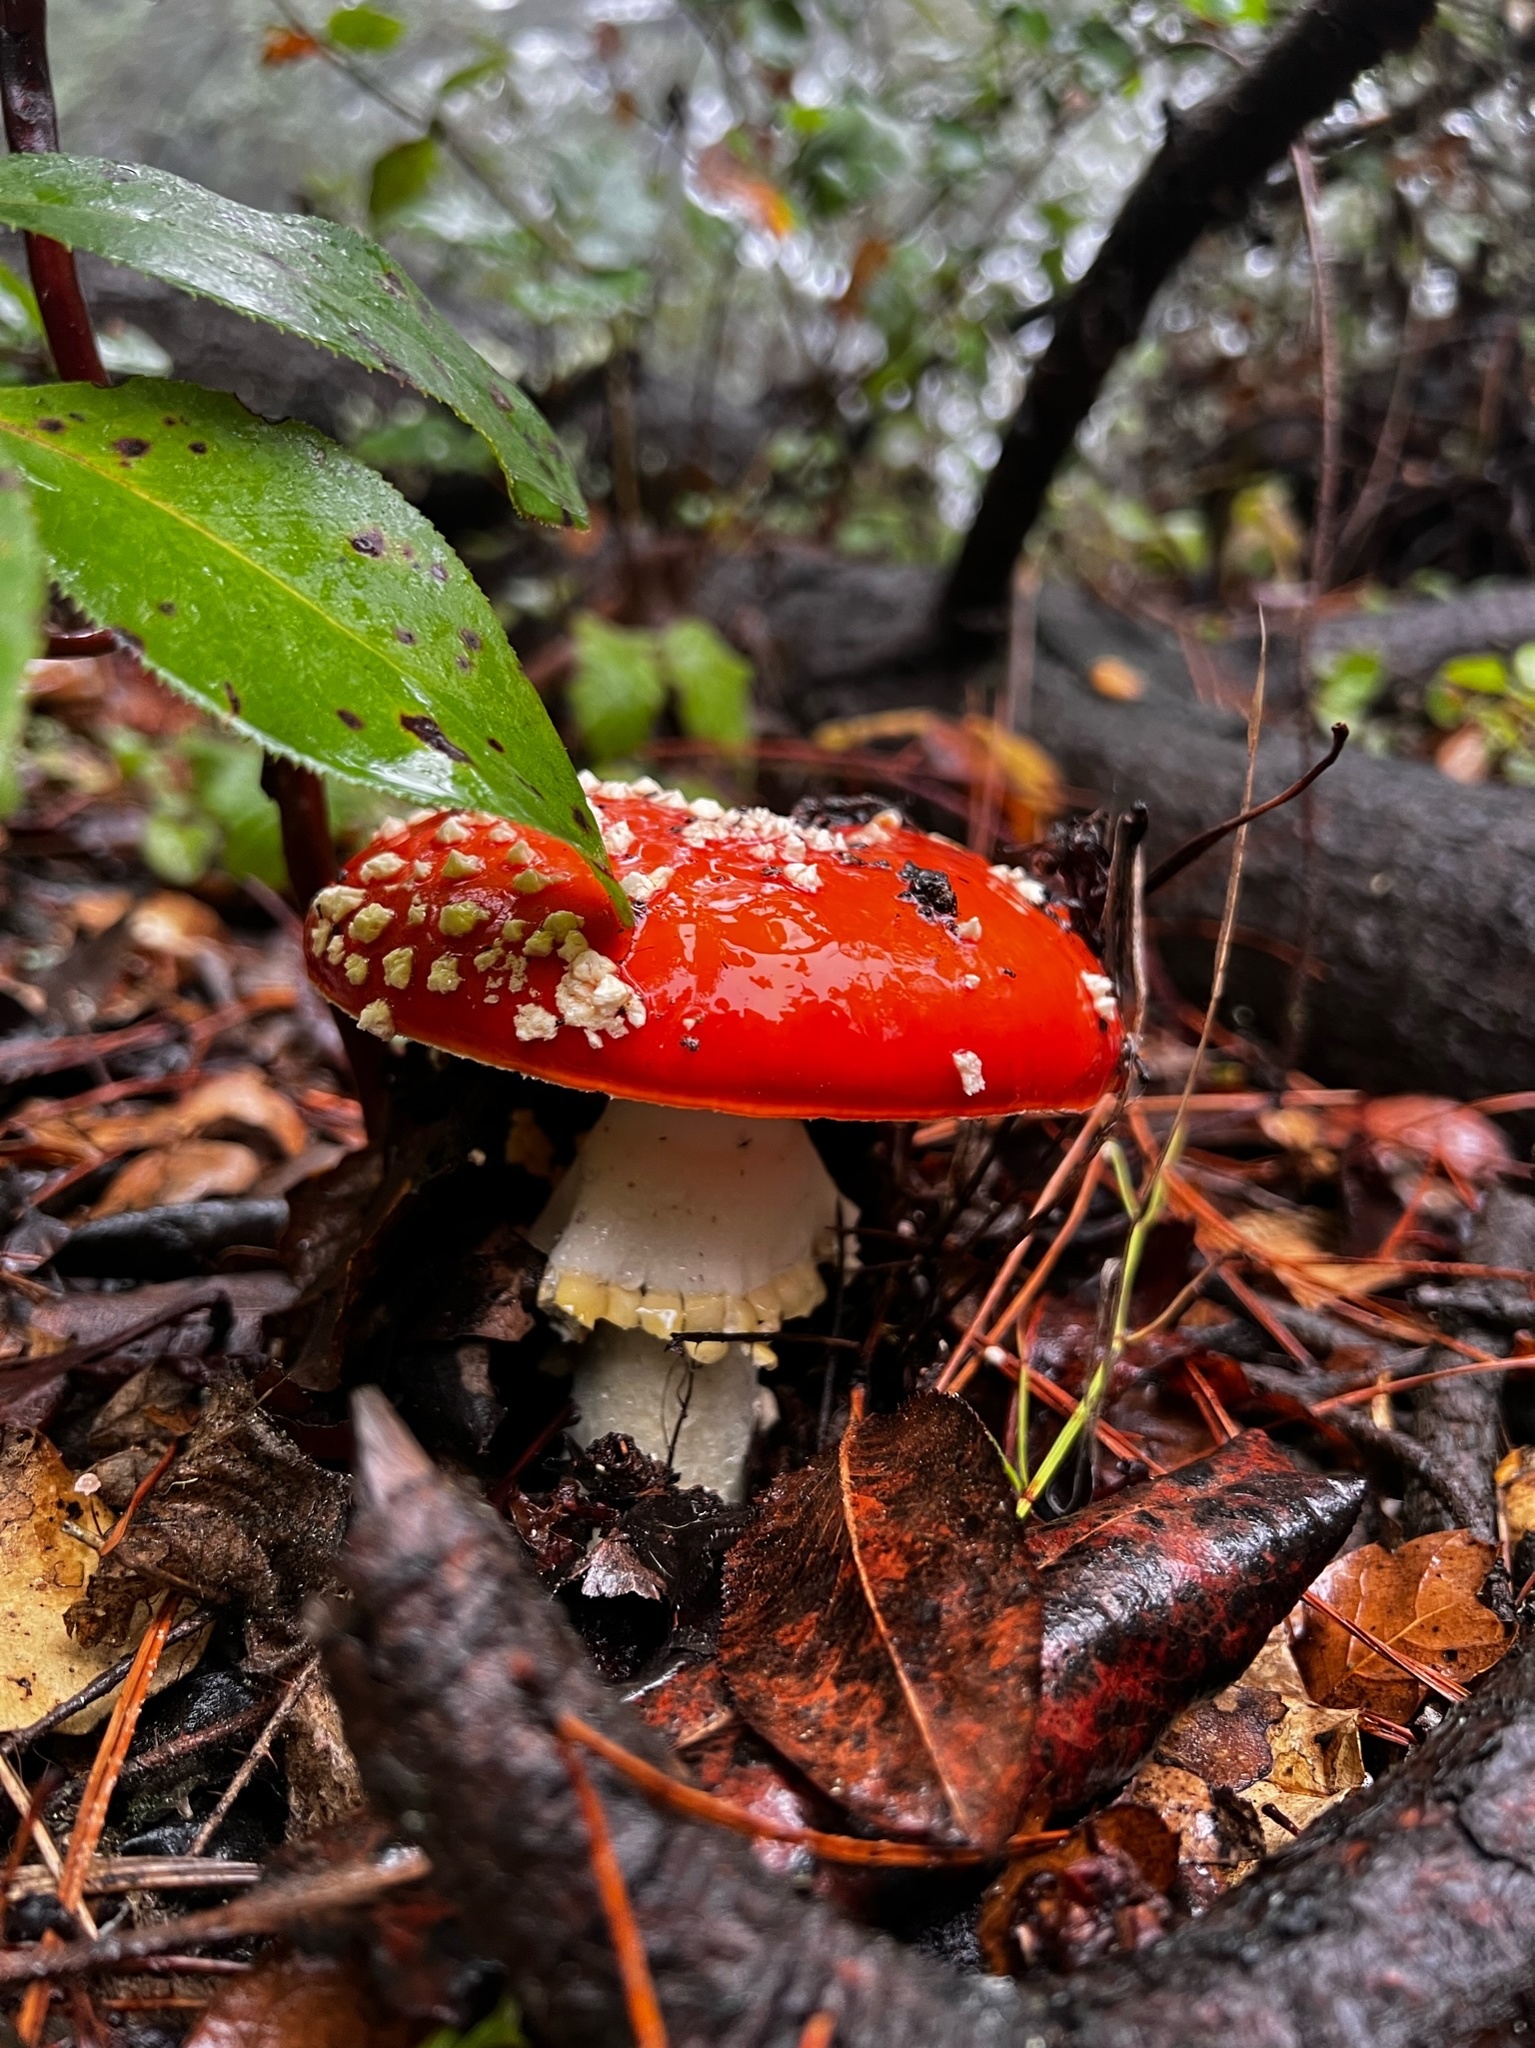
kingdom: Fungi
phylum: Basidiomycota
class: Agaricomycetes
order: Agaricales
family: Amanitaceae
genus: Amanita
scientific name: Amanita muscaria
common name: Fly agaric
